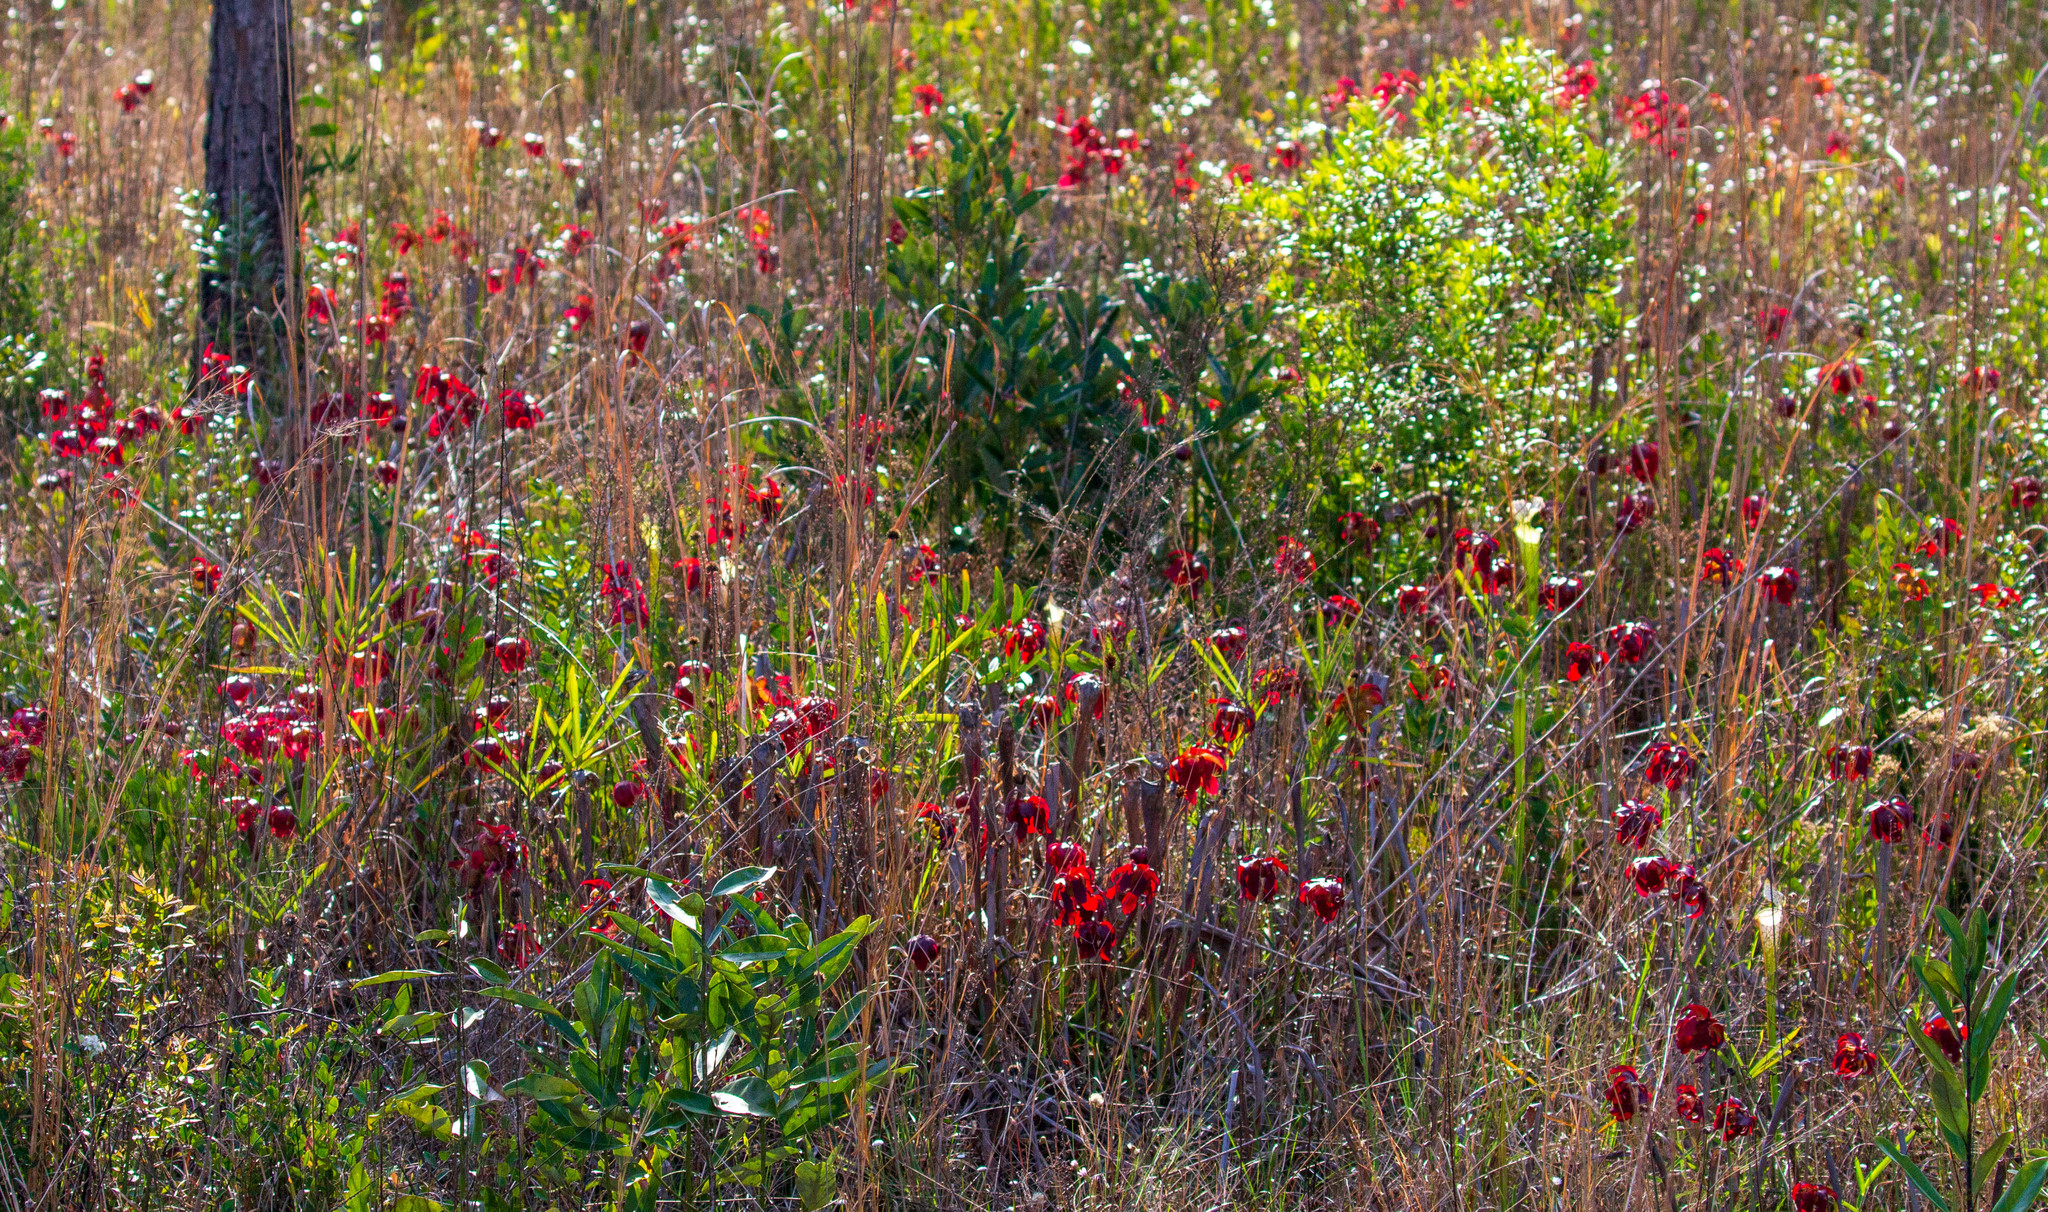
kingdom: Plantae
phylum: Tracheophyta
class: Magnoliopsida
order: Ericales
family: Sarraceniaceae
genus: Sarracenia
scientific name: Sarracenia leucophylla
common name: Purple trumpetleaf
